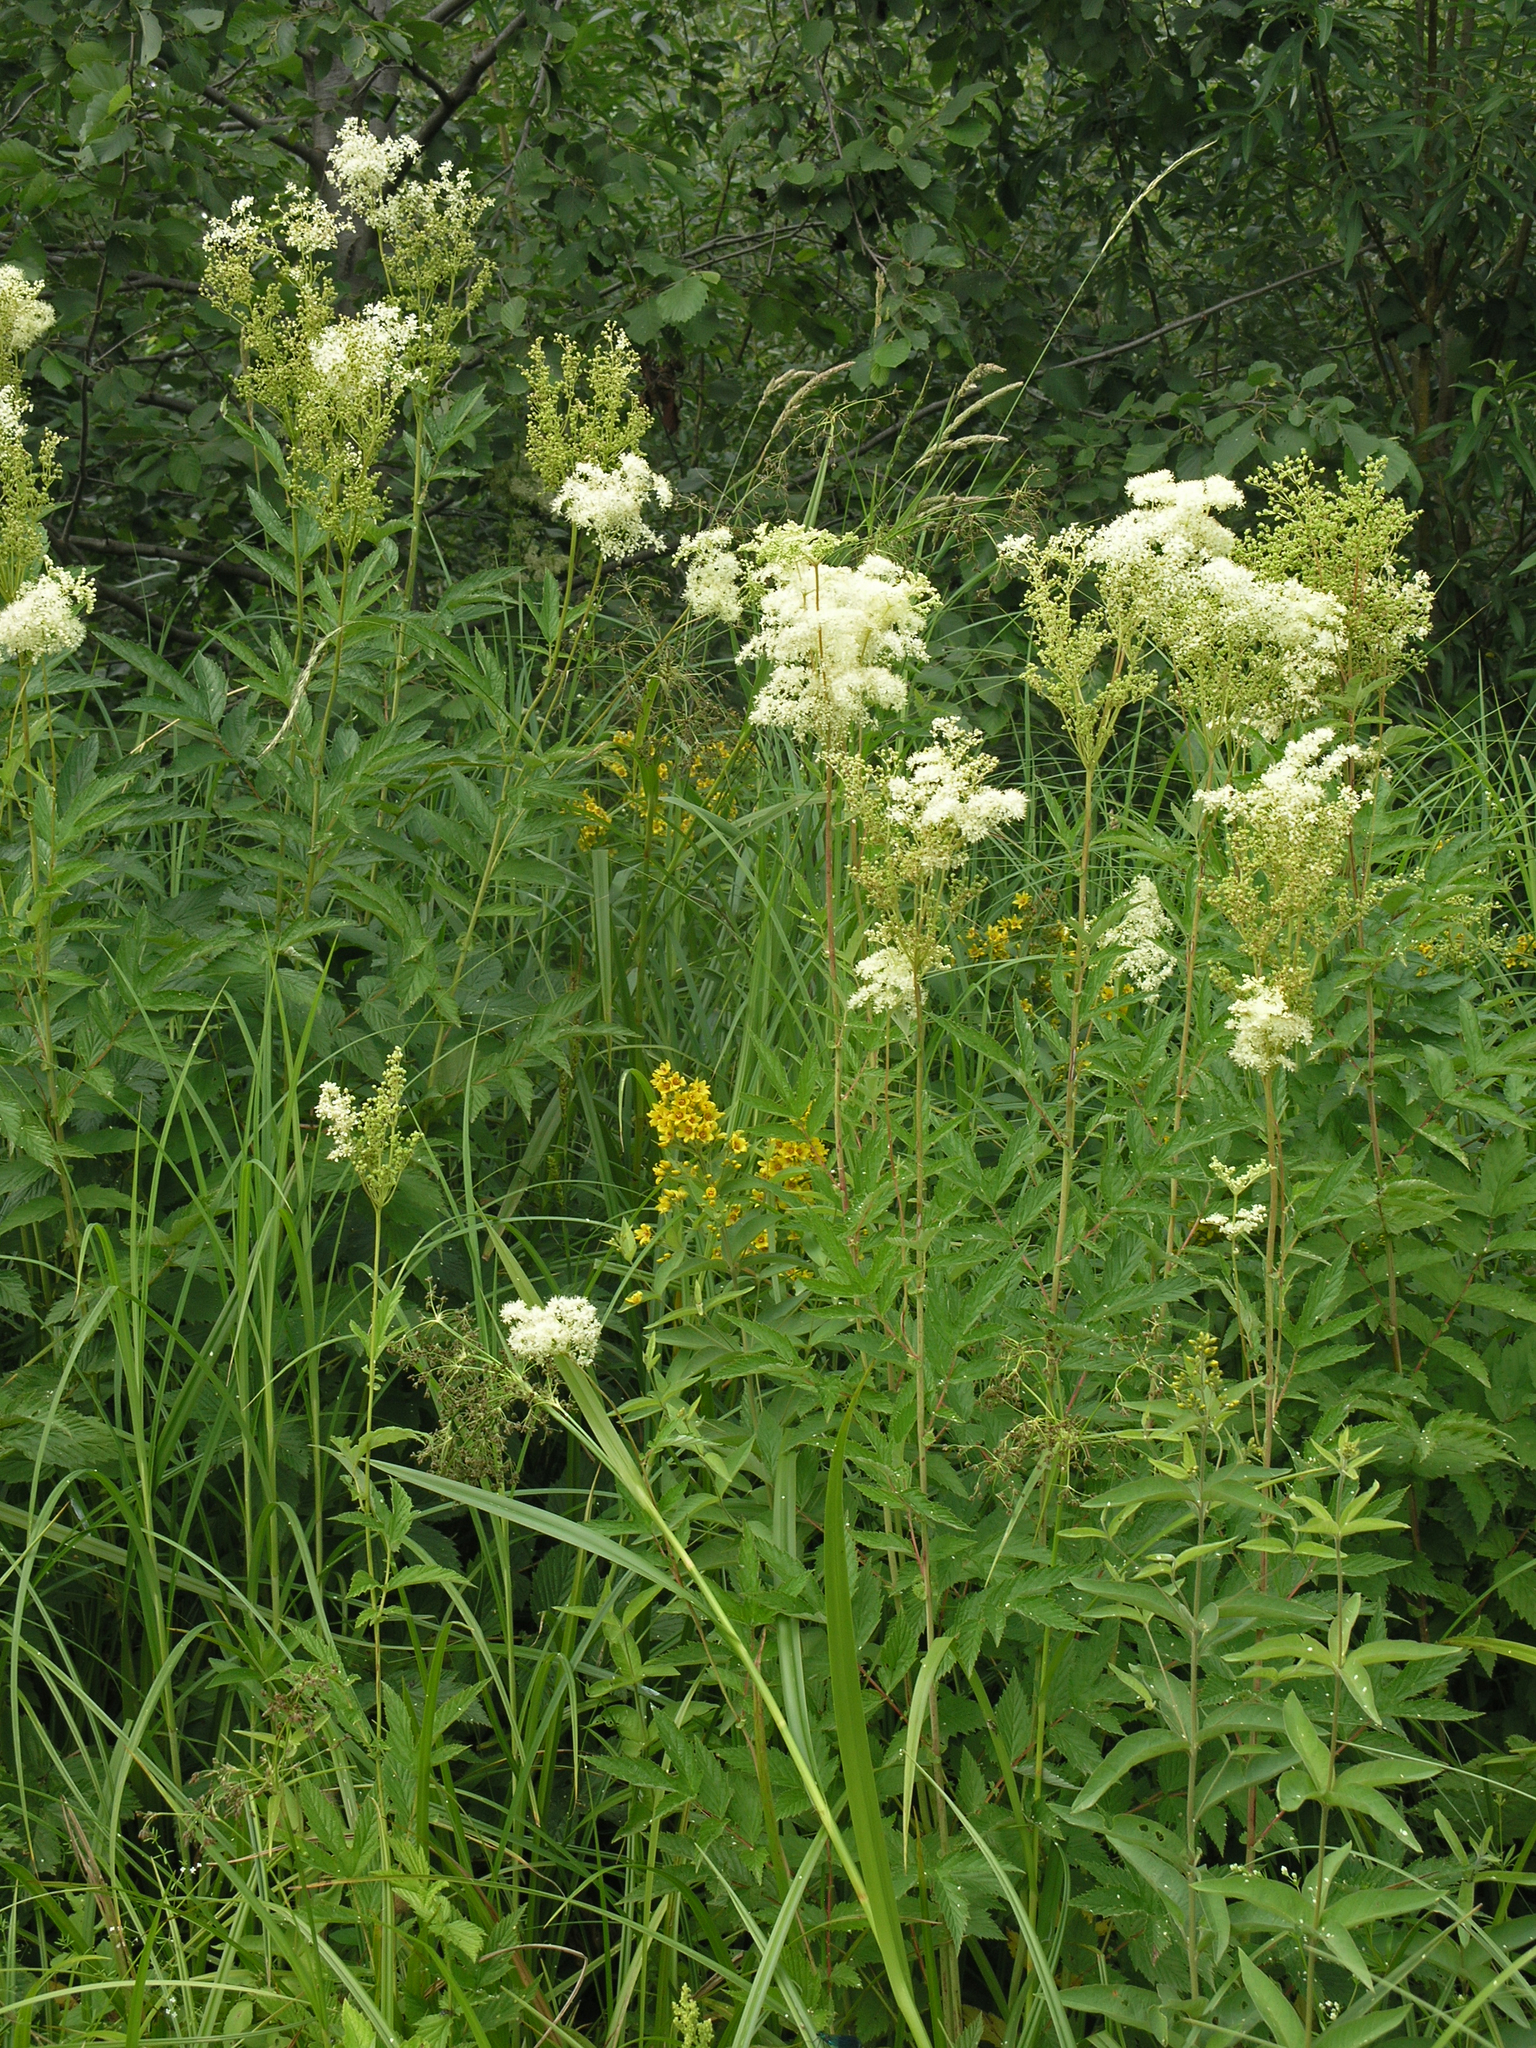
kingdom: Plantae
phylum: Tracheophyta
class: Magnoliopsida
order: Rosales
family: Rosaceae
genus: Filipendula
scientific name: Filipendula ulmaria
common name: Meadowsweet
